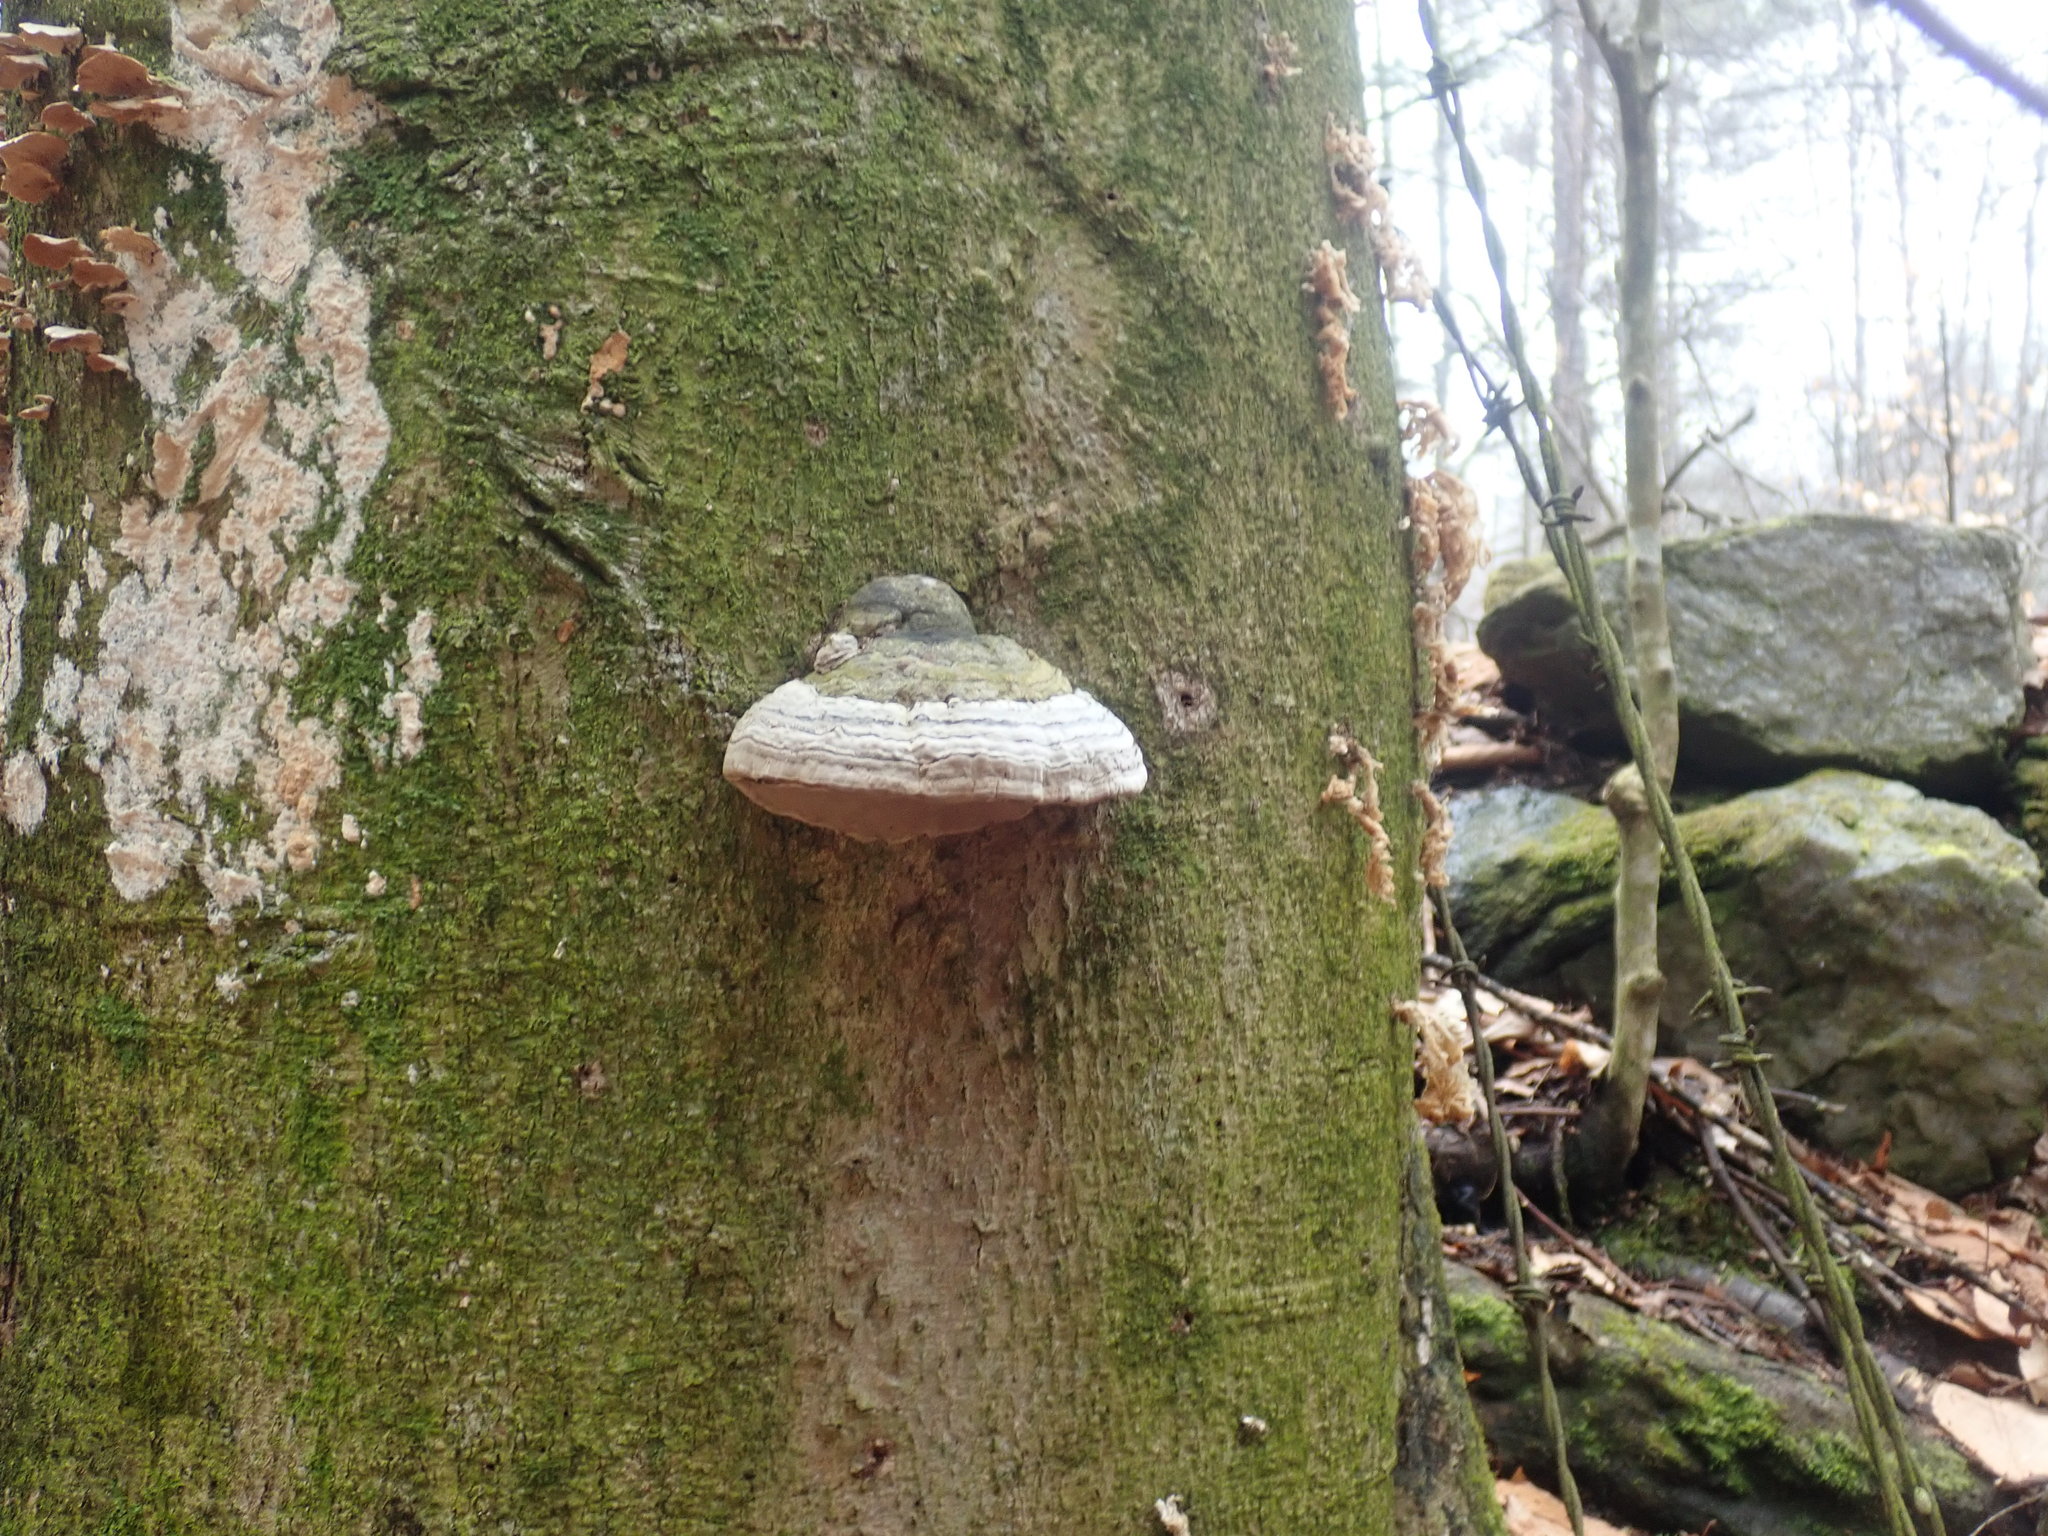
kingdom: Fungi
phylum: Basidiomycota
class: Agaricomycetes
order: Polyporales
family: Polyporaceae
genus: Fomes
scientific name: Fomes fomentarius
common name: Hoof fungus
